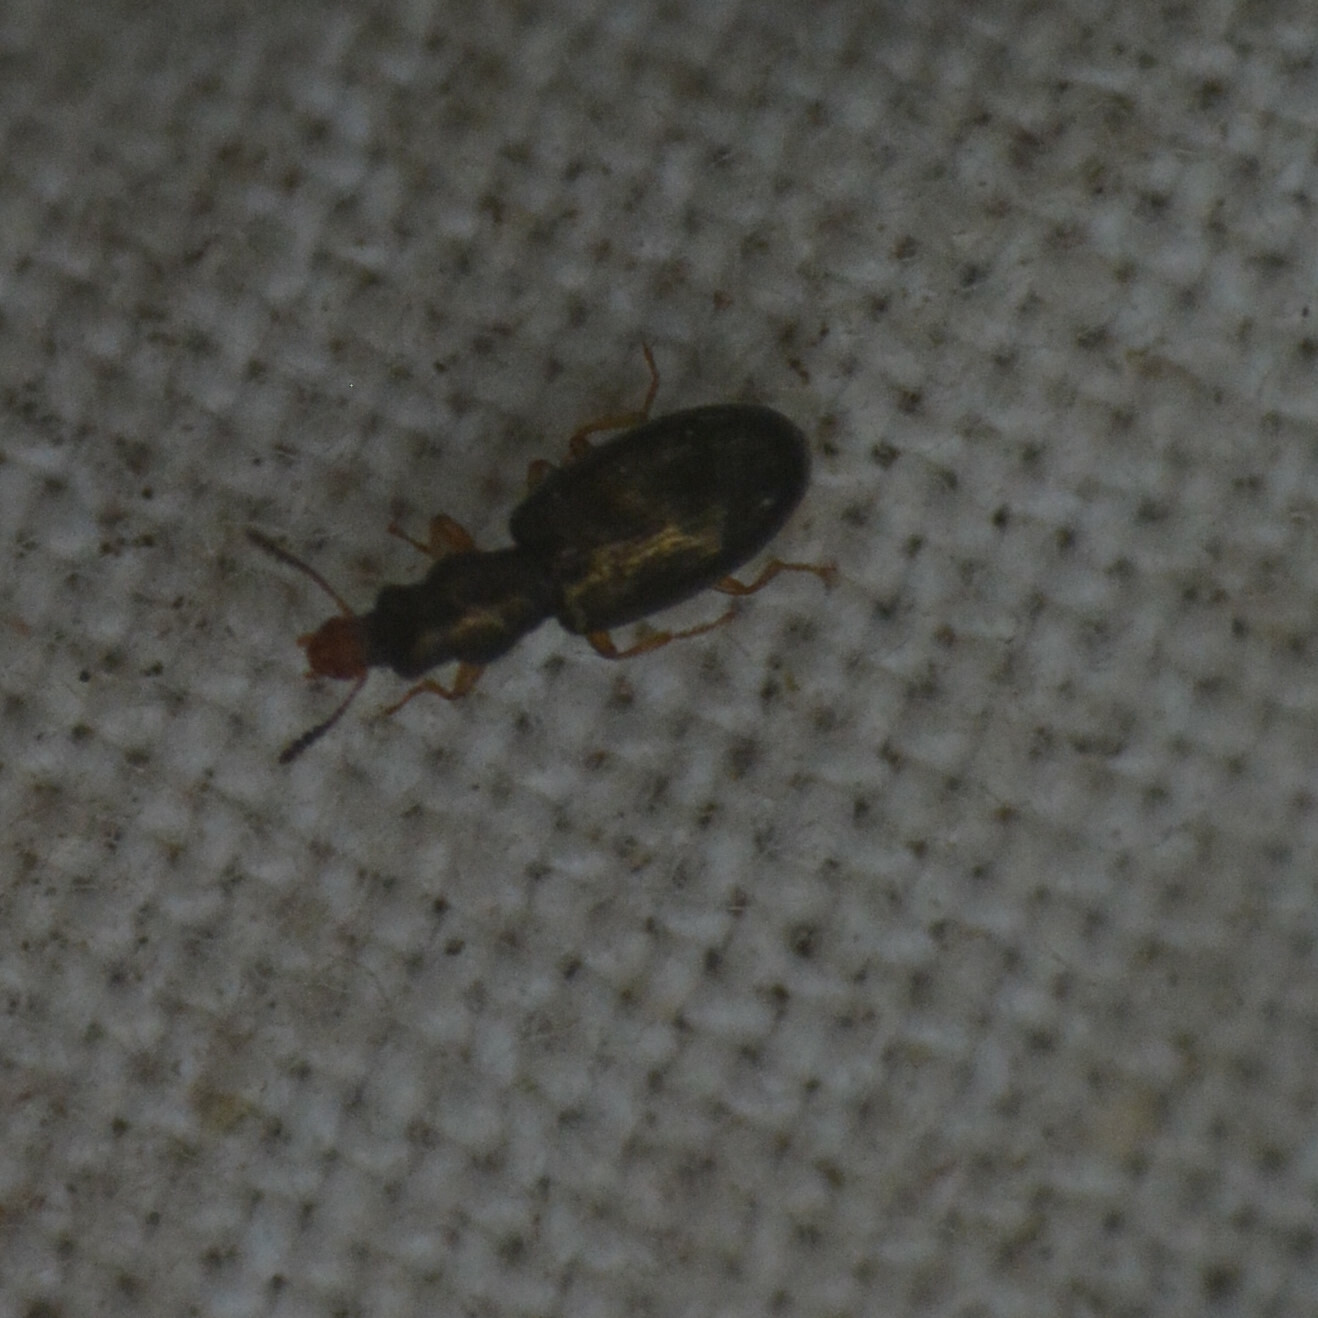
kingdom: Animalia
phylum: Arthropoda
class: Insecta
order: Coleoptera
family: Salpingidae
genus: Salpingus
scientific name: Salpingus planirostris
